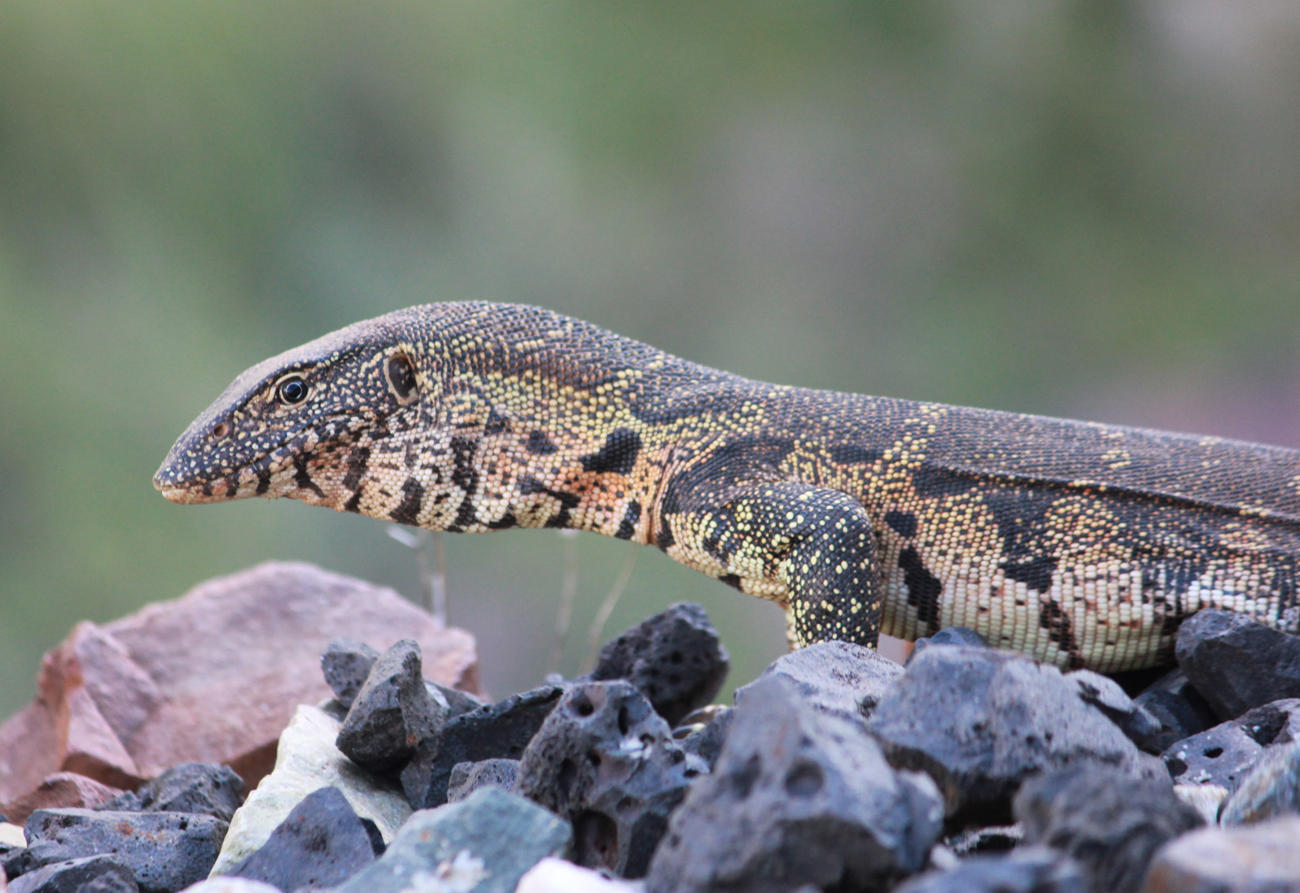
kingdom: Animalia
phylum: Chordata
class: Squamata
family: Varanidae
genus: Varanus
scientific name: Varanus niloticus
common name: Nile monitor
